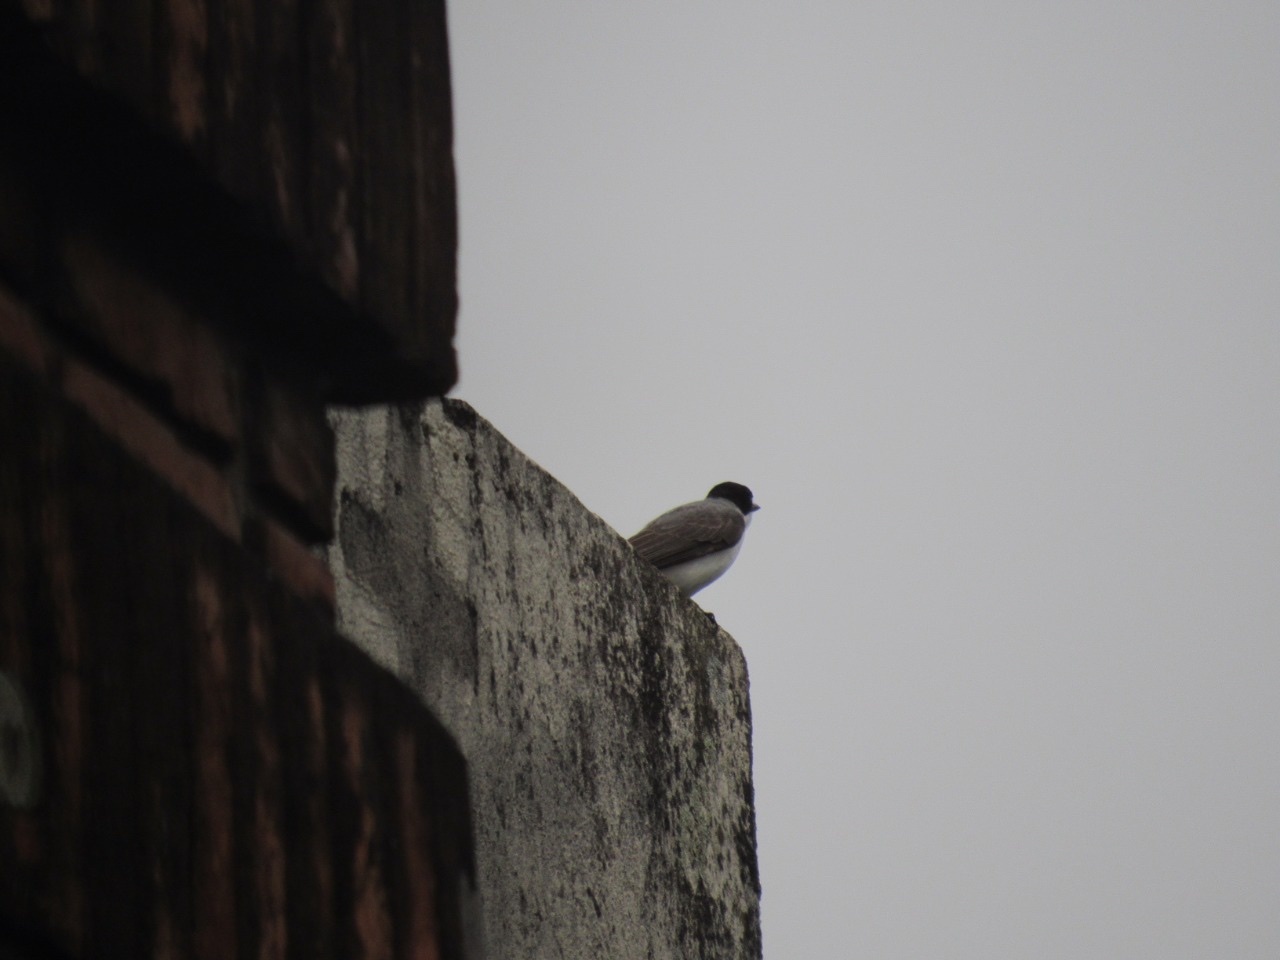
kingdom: Animalia
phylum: Chordata
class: Aves
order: Passeriformes
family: Tyrannidae
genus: Tyrannus
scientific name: Tyrannus savana
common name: Fork-tailed flycatcher
